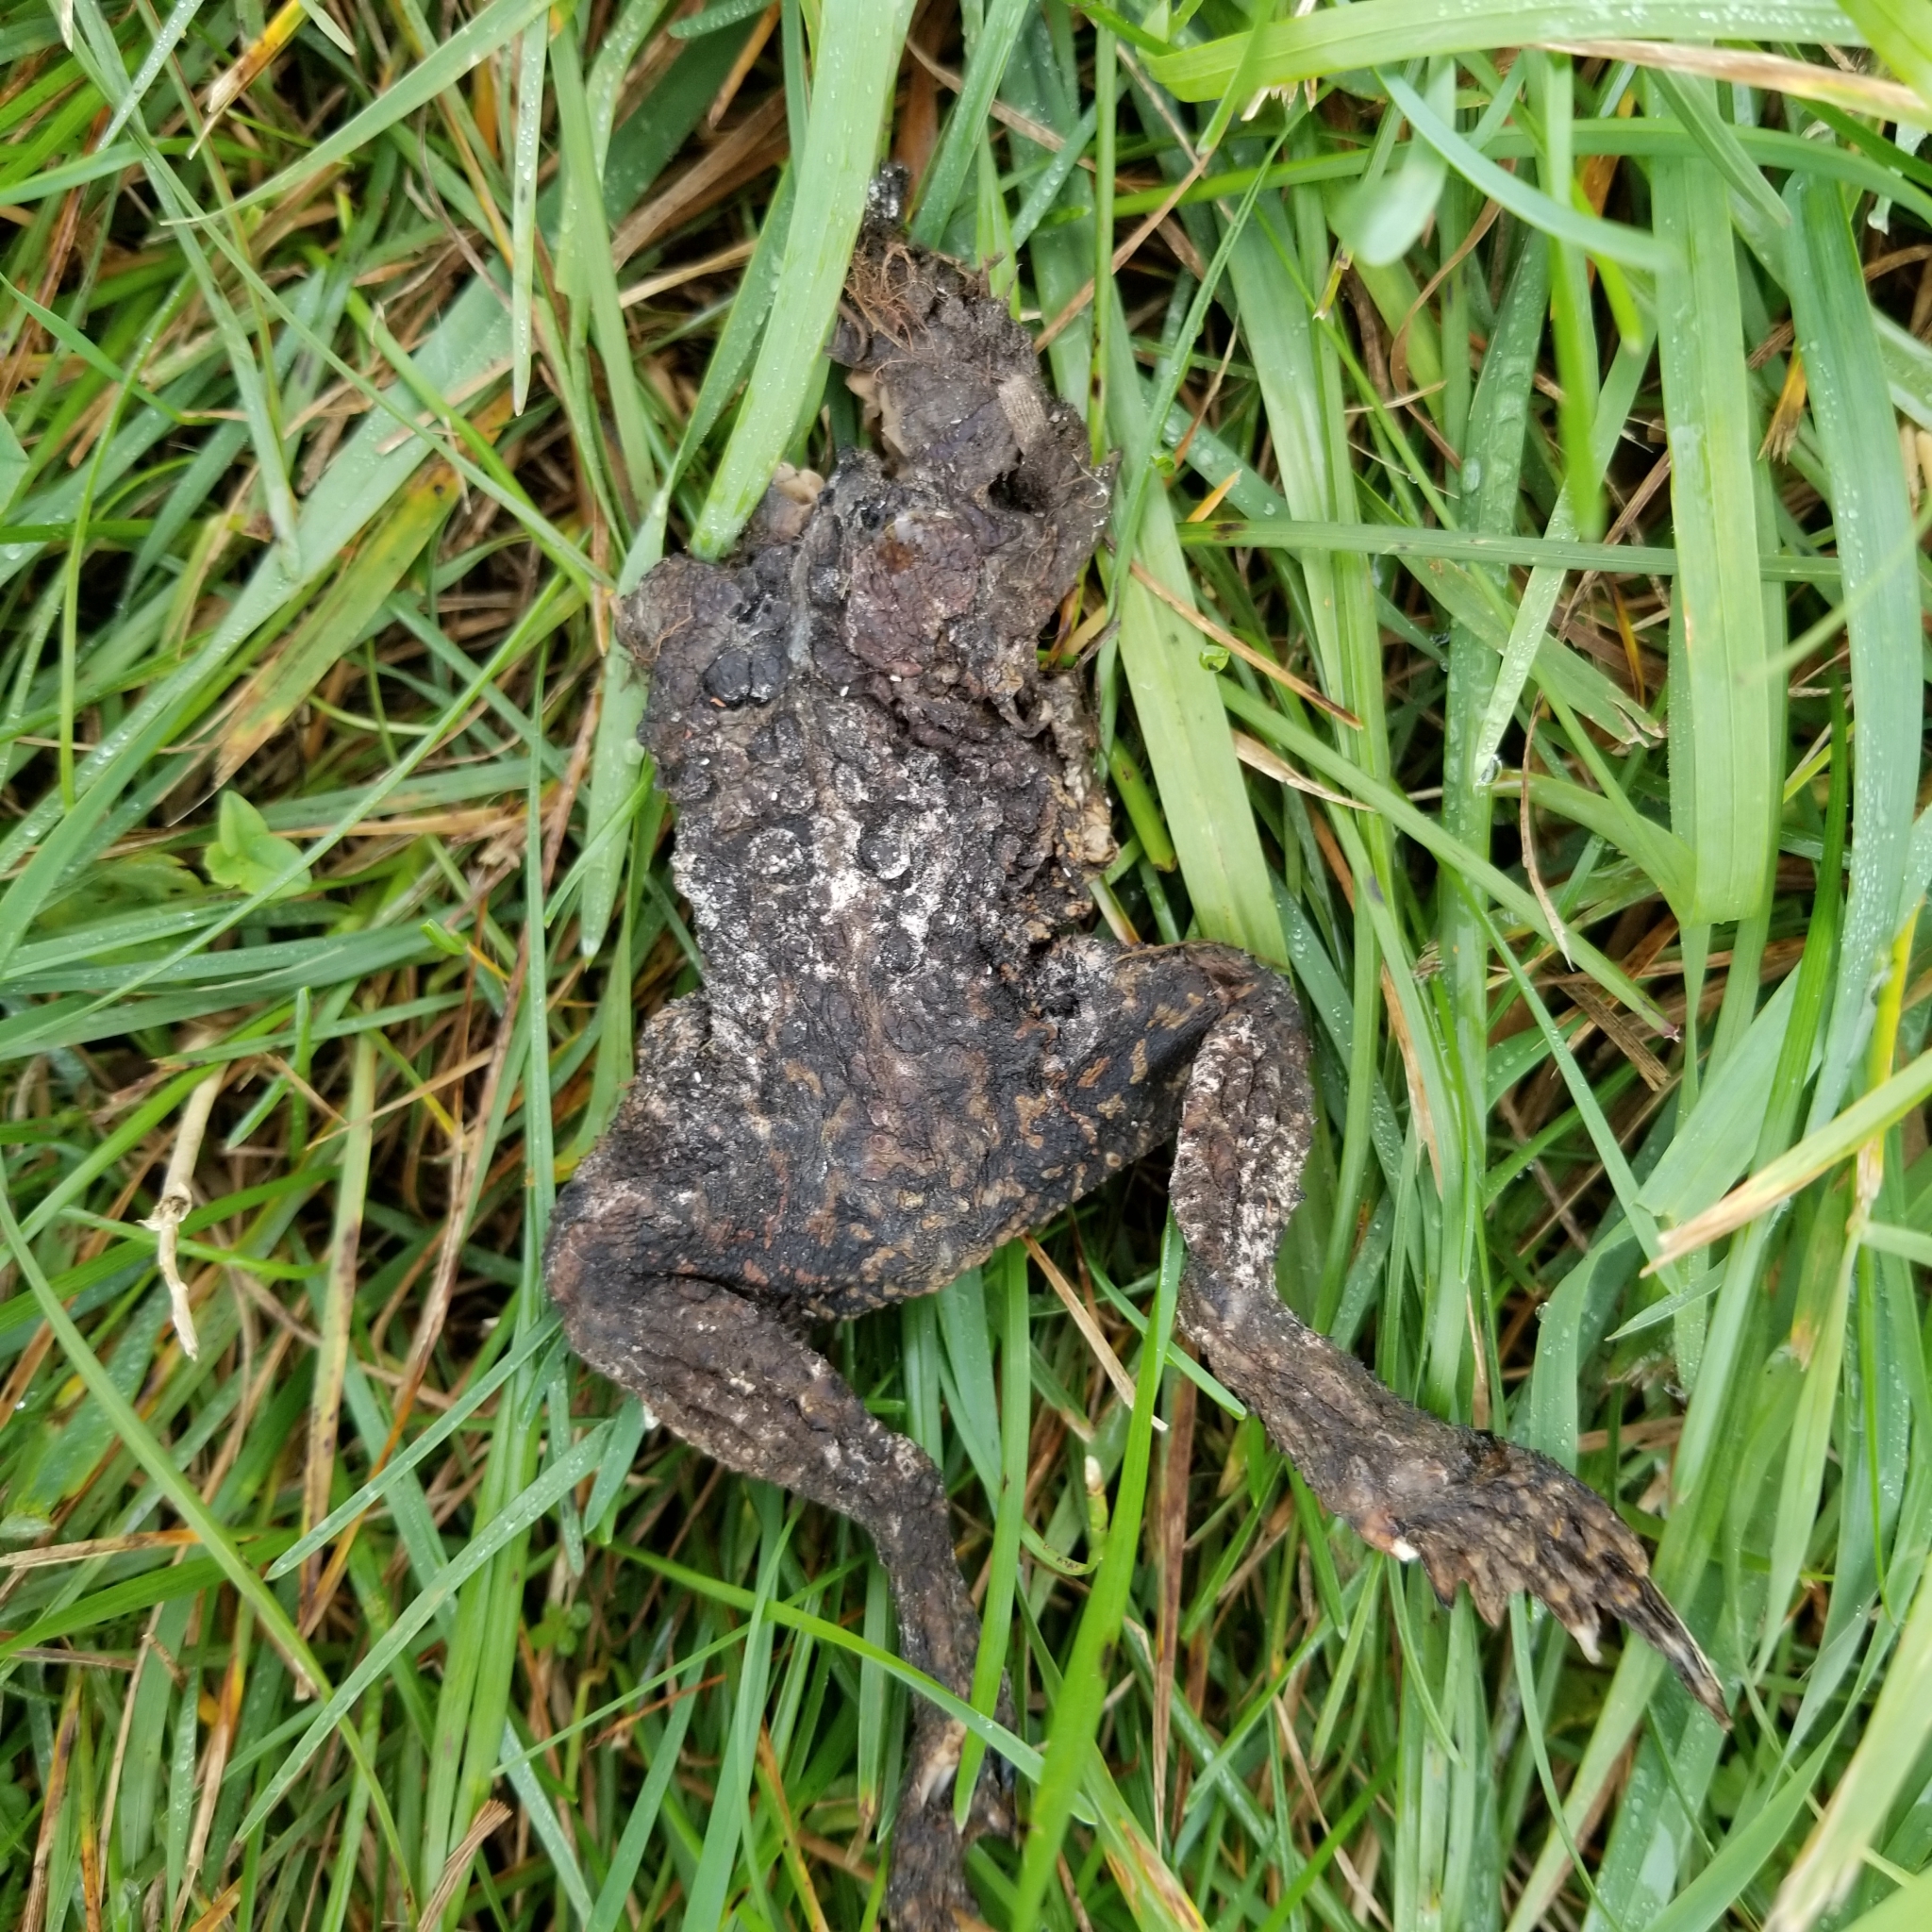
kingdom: Animalia
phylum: Chordata
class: Amphibia
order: Anura
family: Bufonidae
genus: Anaxyrus
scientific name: Anaxyrus americanus
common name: American toad
